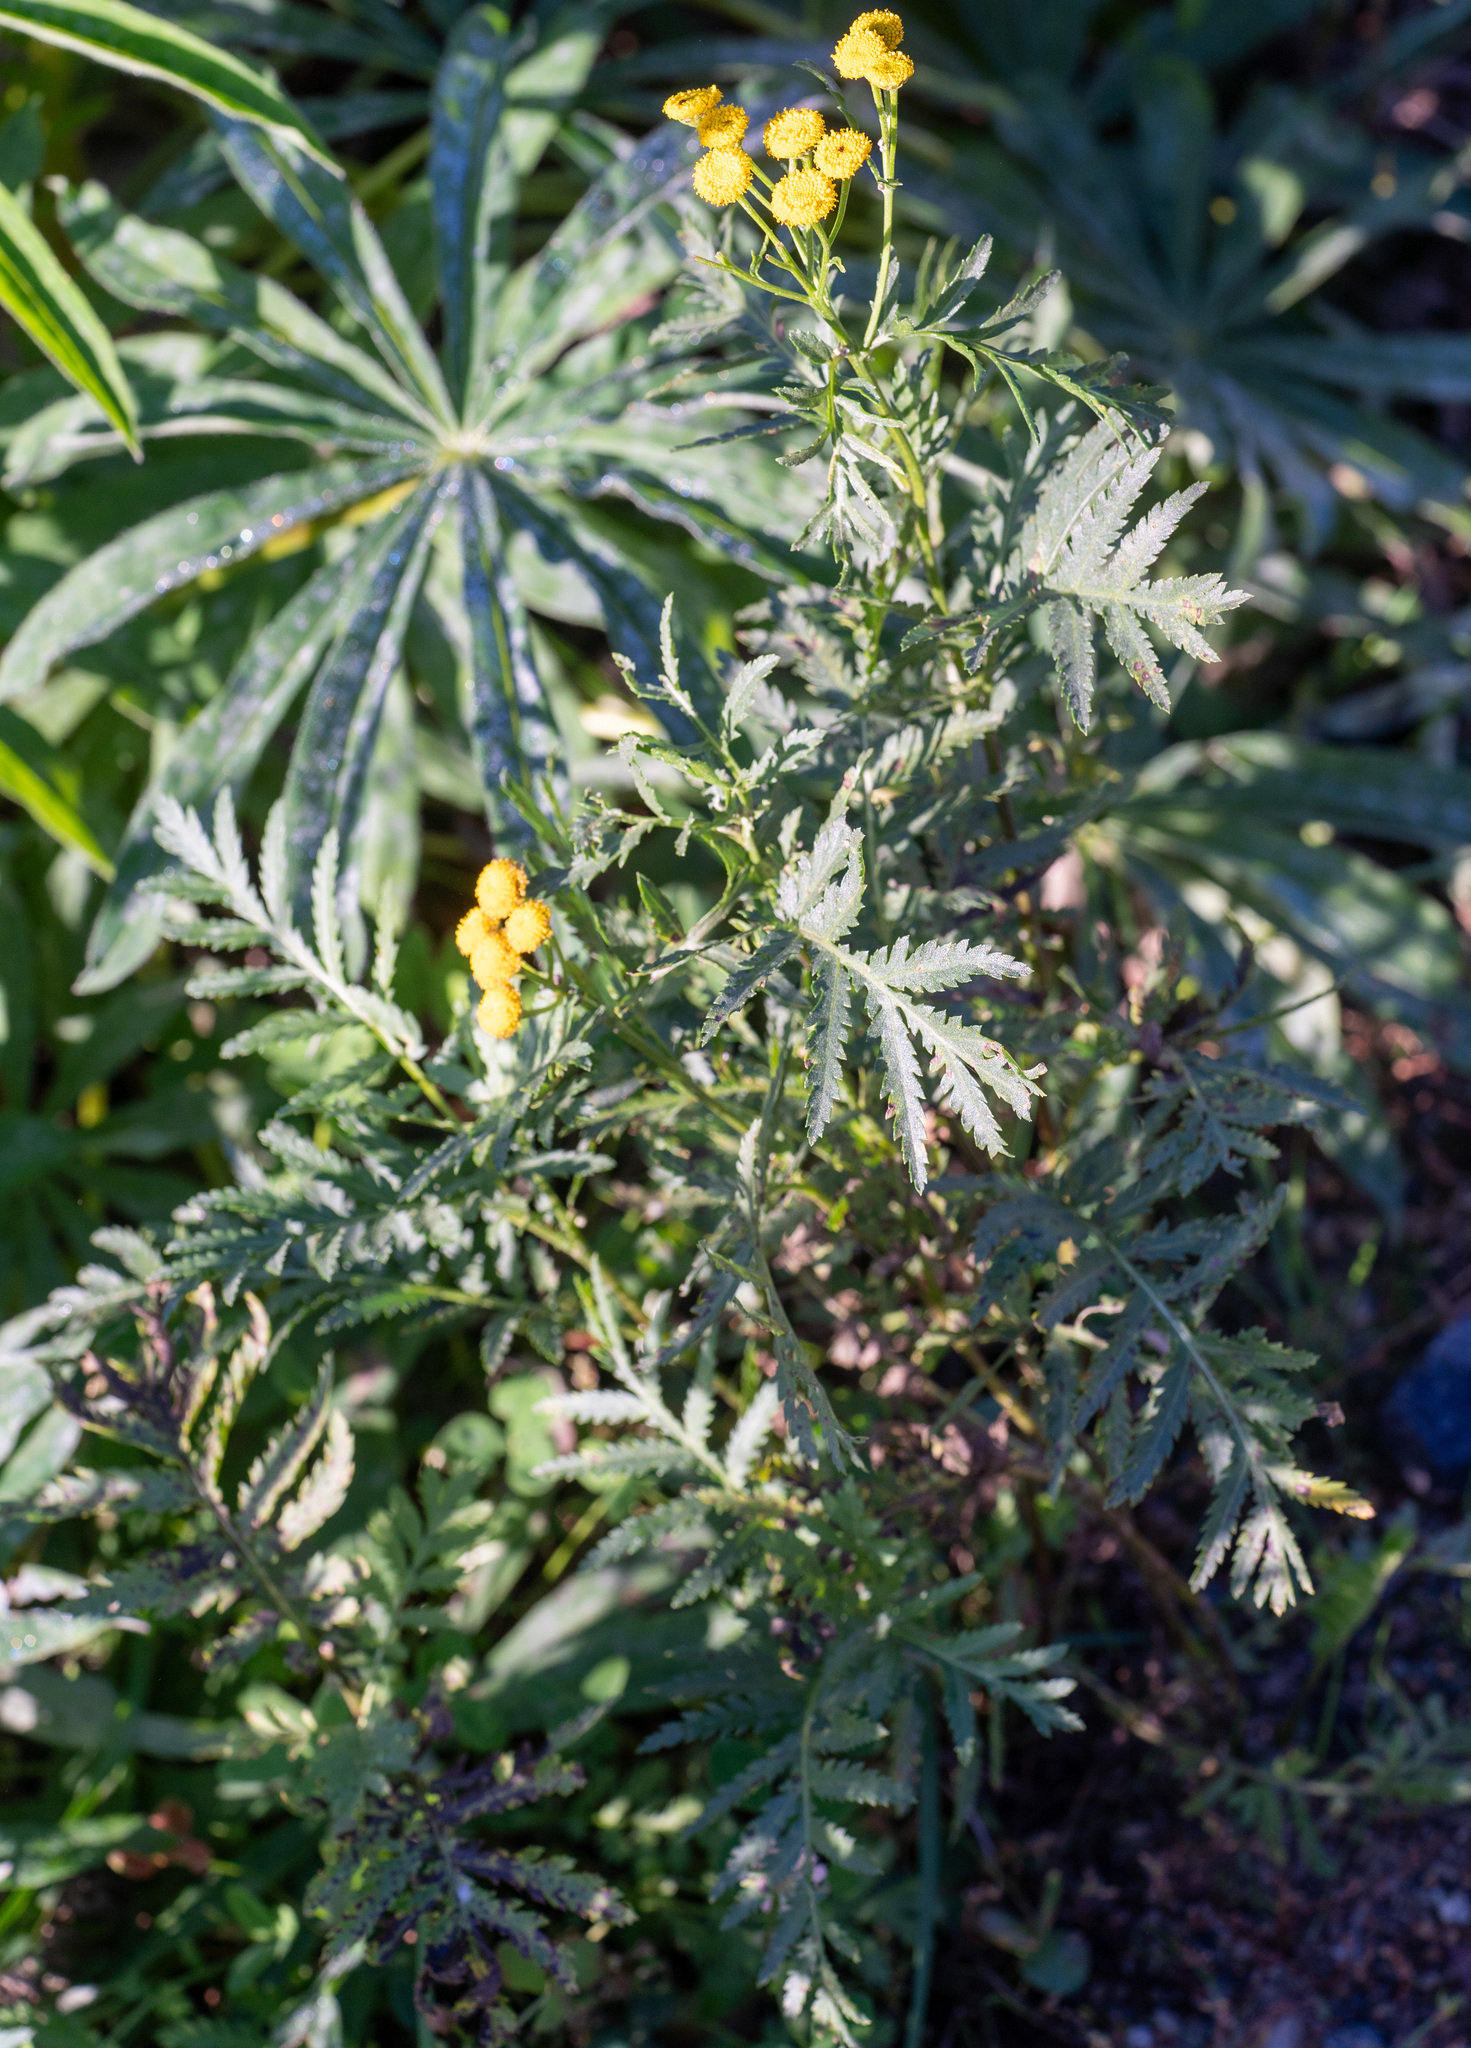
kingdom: Plantae
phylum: Tracheophyta
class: Magnoliopsida
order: Asterales
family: Asteraceae
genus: Tanacetum
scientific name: Tanacetum vulgare
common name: Common tansy
